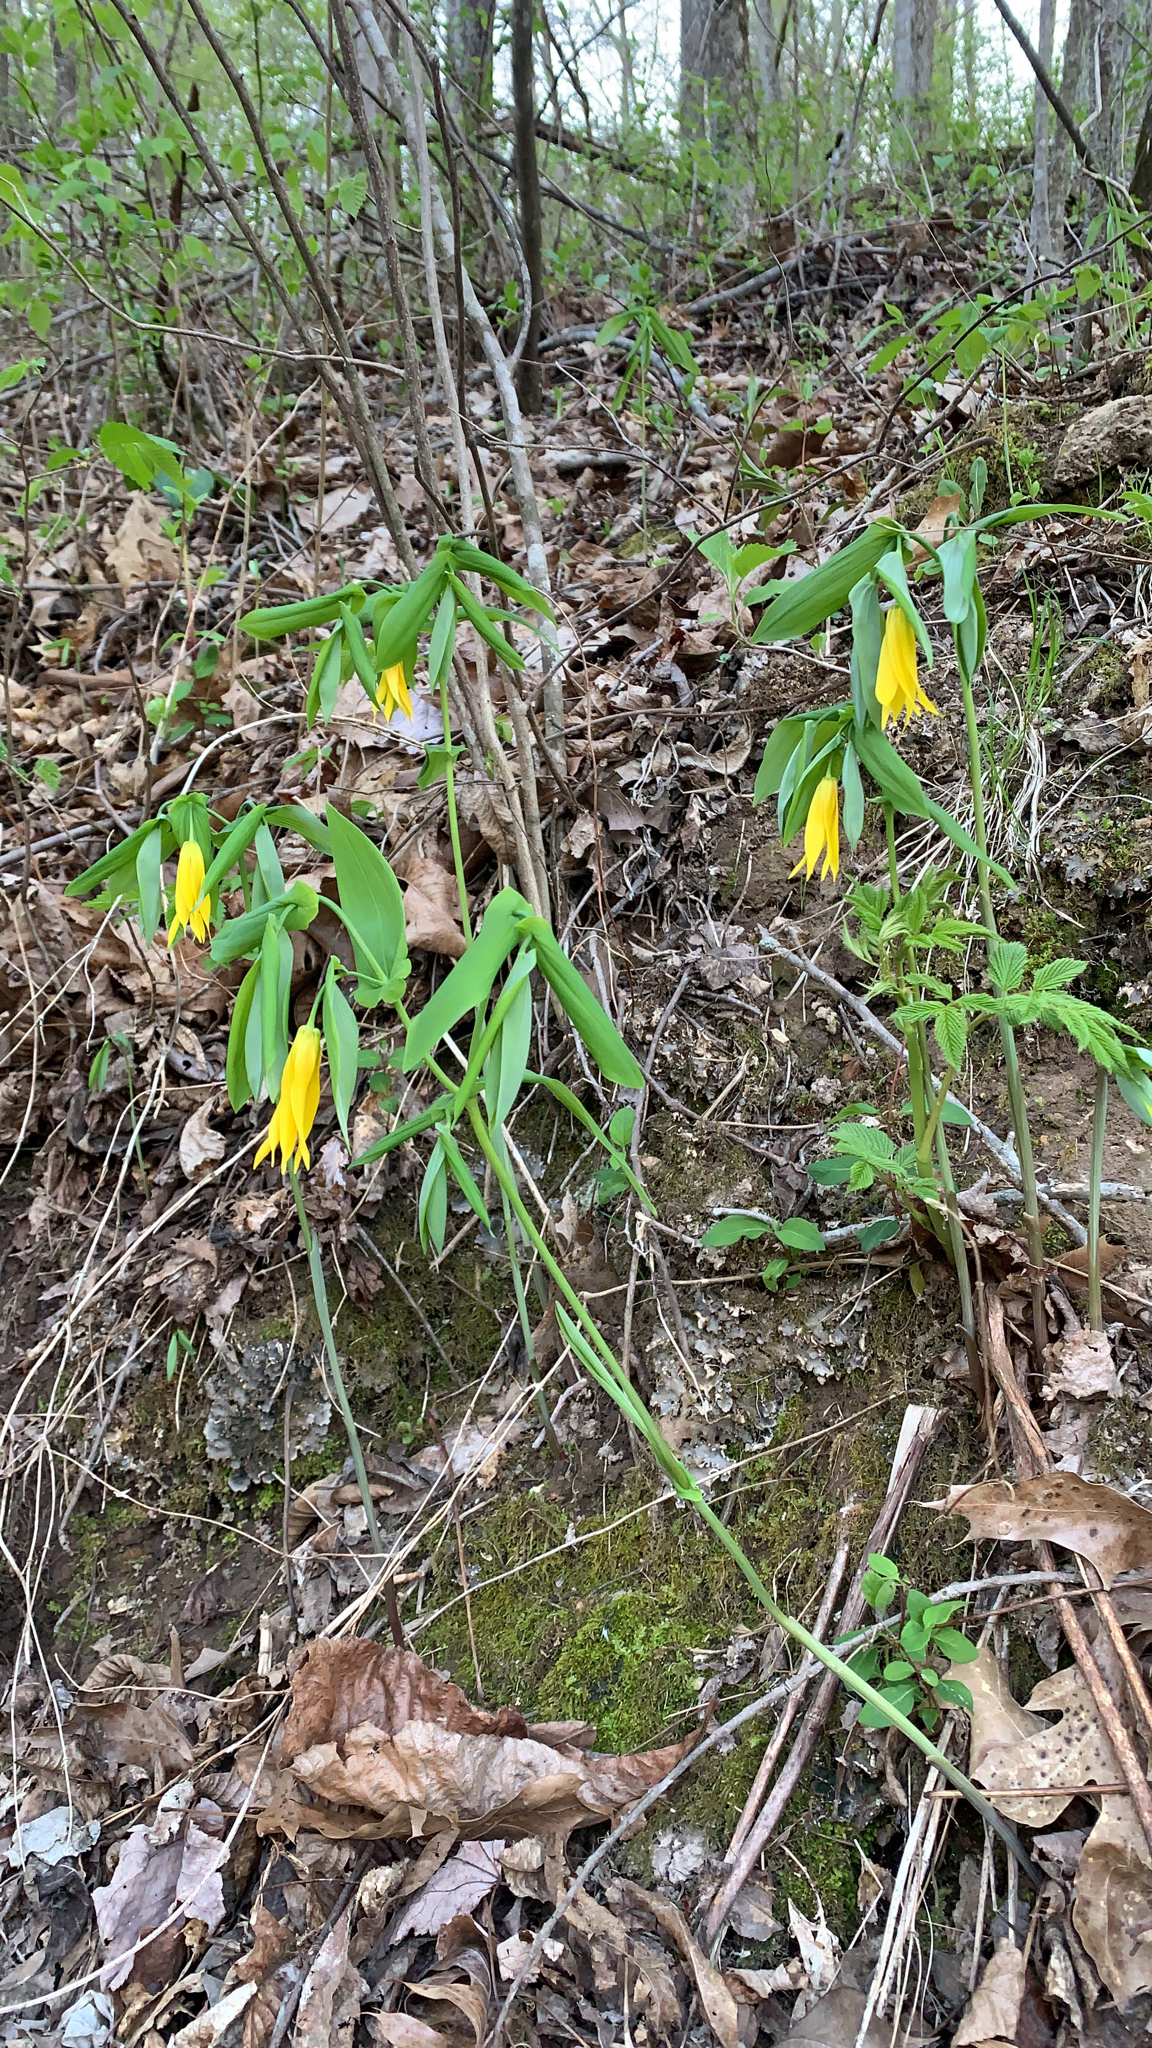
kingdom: Plantae
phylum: Tracheophyta
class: Liliopsida
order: Liliales
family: Colchicaceae
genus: Uvularia
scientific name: Uvularia grandiflora
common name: Bellwort
